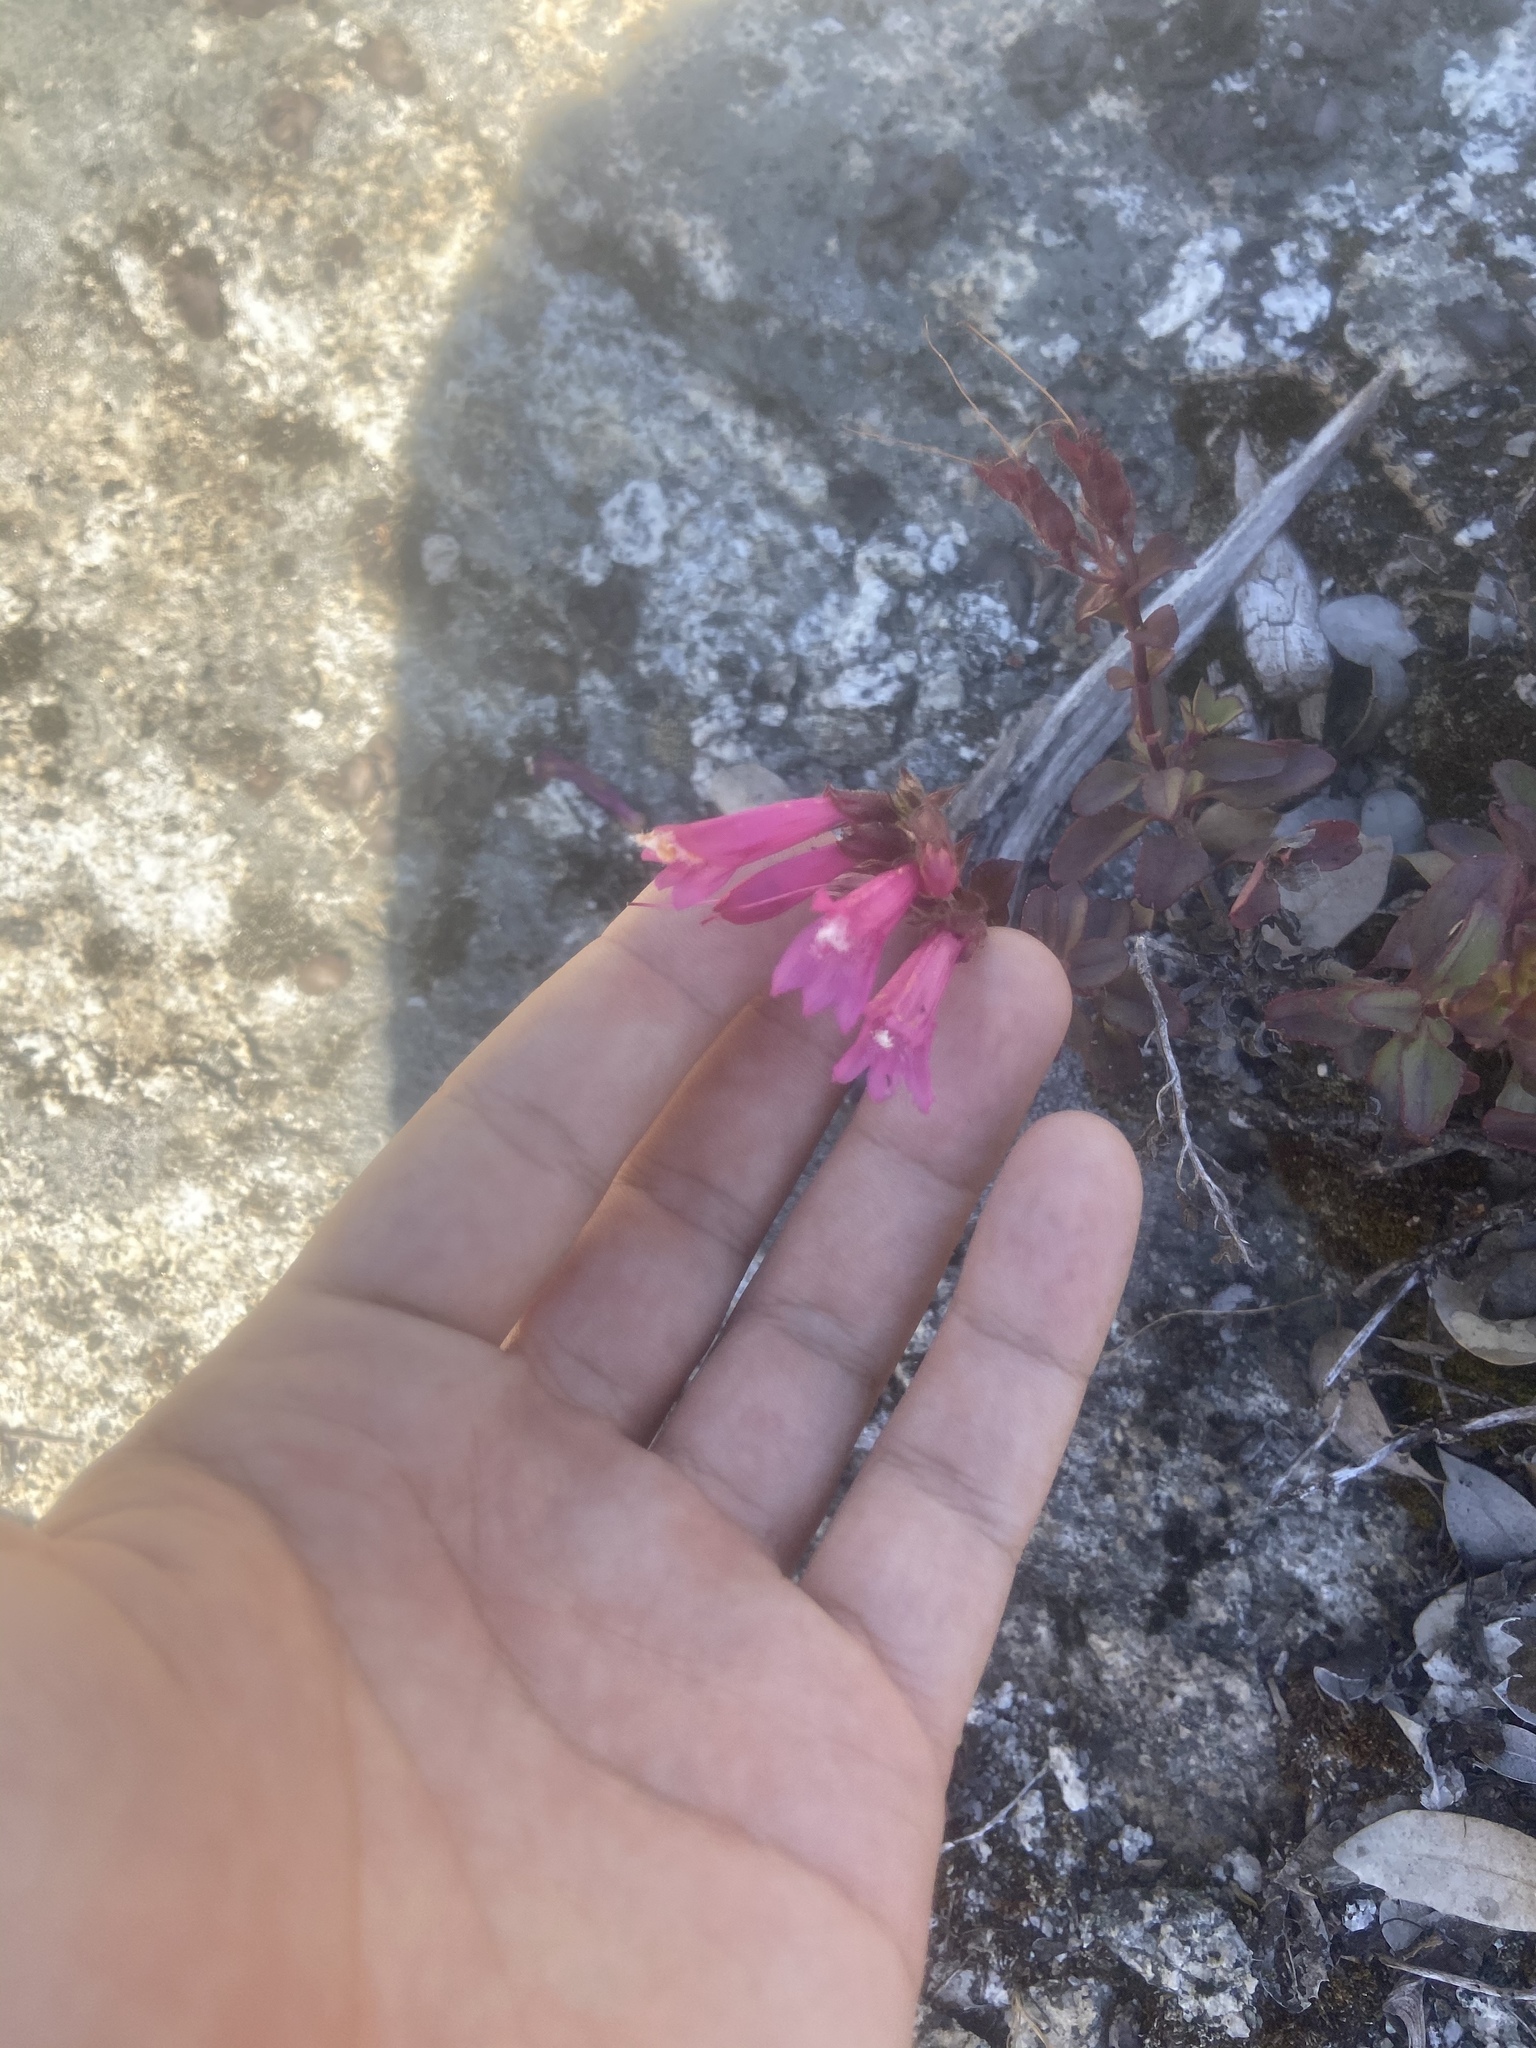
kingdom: Plantae
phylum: Tracheophyta
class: Magnoliopsida
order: Lamiales
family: Plantaginaceae
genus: Penstemon
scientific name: Penstemon newberryi
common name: Mountain-pride
